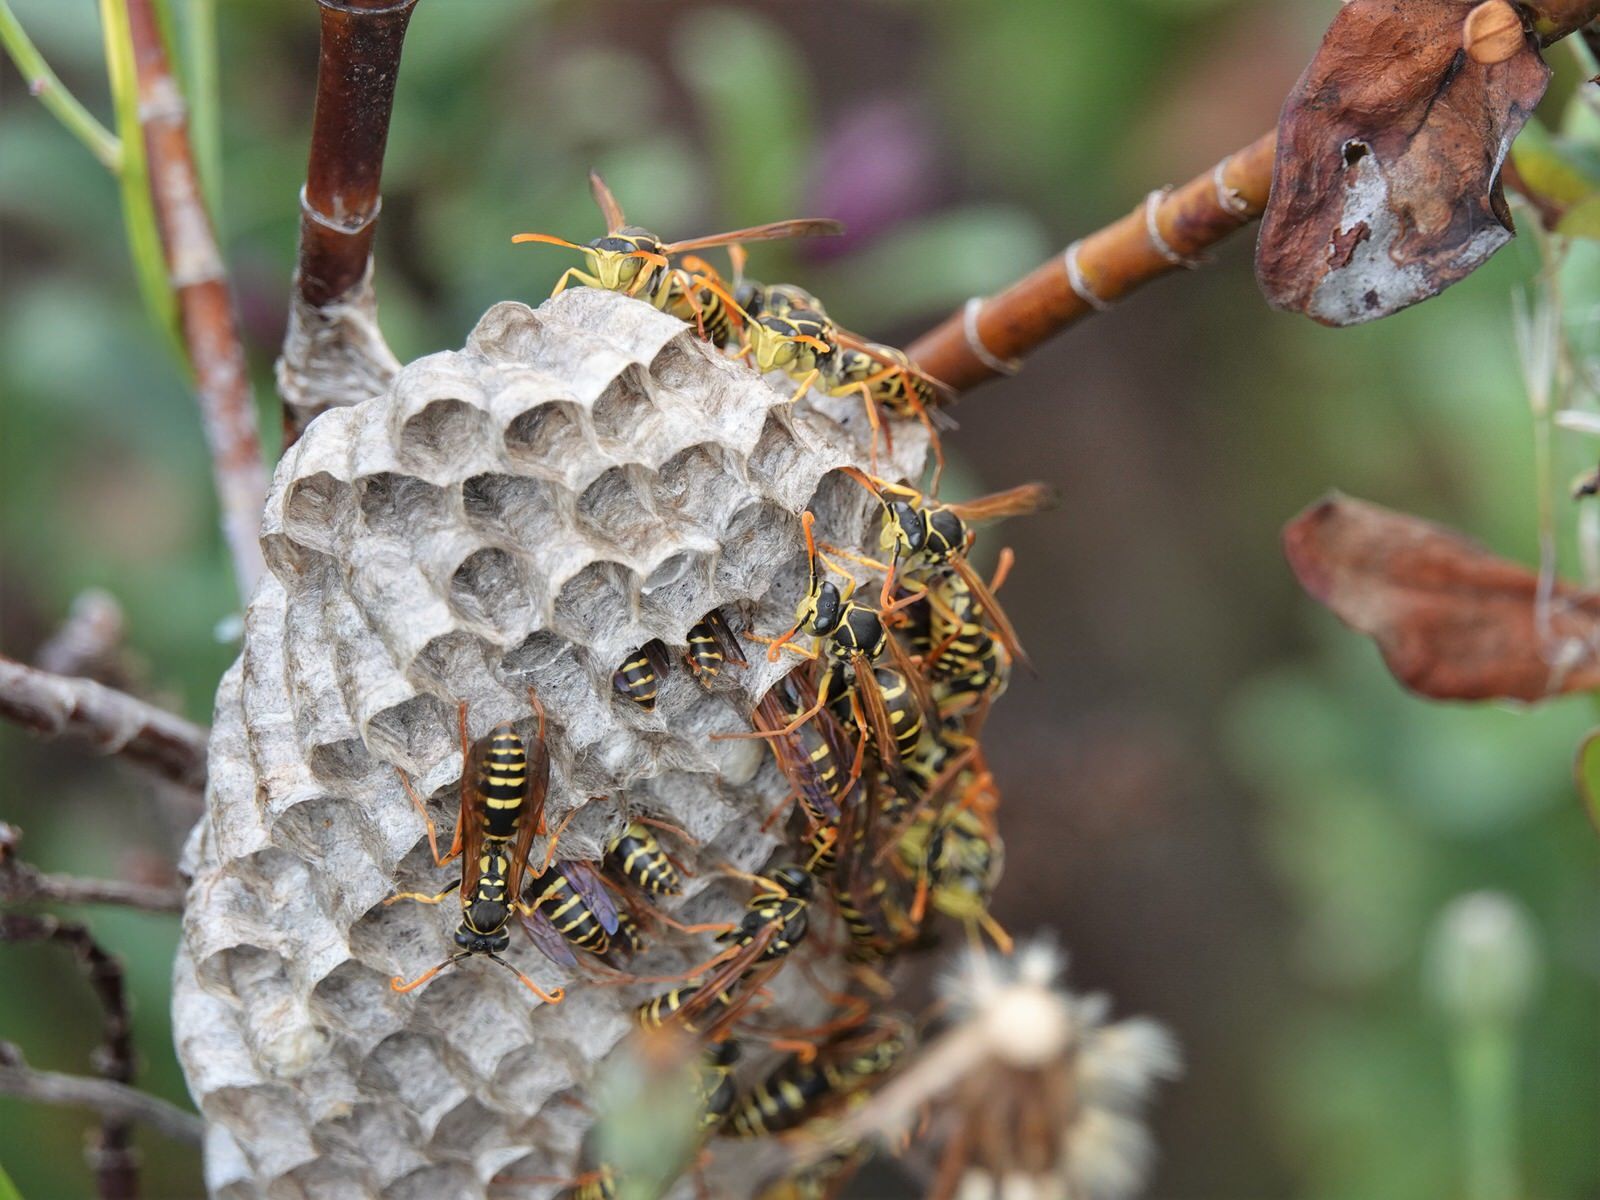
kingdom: Animalia
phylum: Arthropoda
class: Insecta
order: Hymenoptera
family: Eumenidae
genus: Polistes
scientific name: Polistes chinensis
